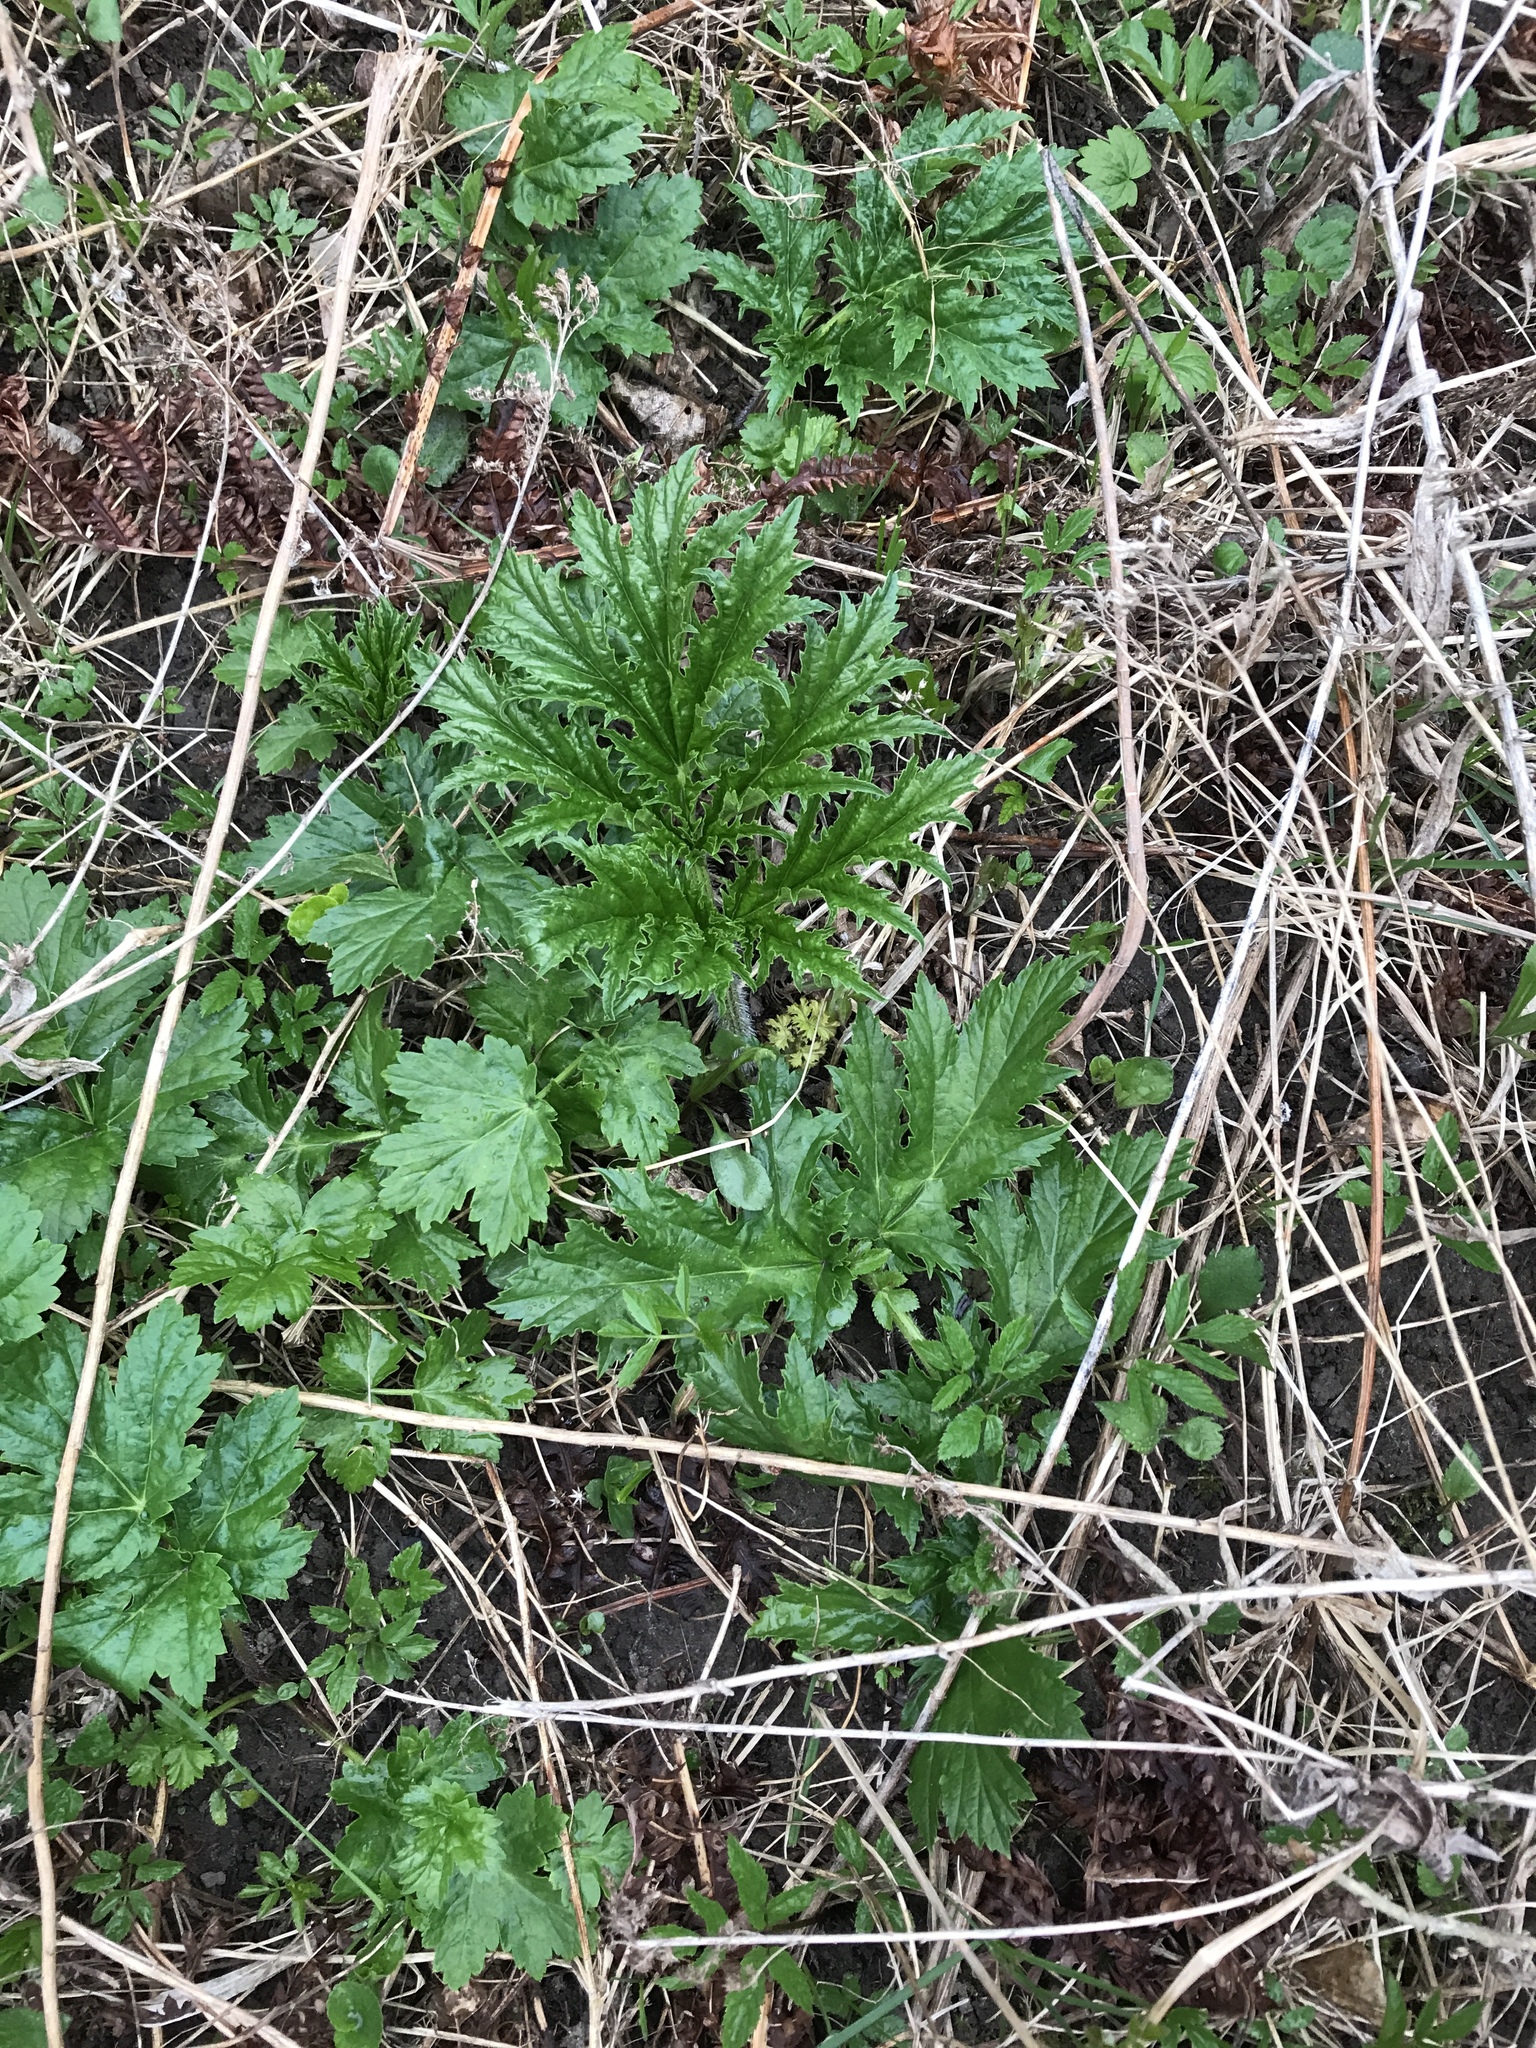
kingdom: Plantae
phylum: Tracheophyta
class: Magnoliopsida
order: Apiales
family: Apiaceae
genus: Heracleum
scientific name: Heracleum mantegazzianum
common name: Giant hogweed
